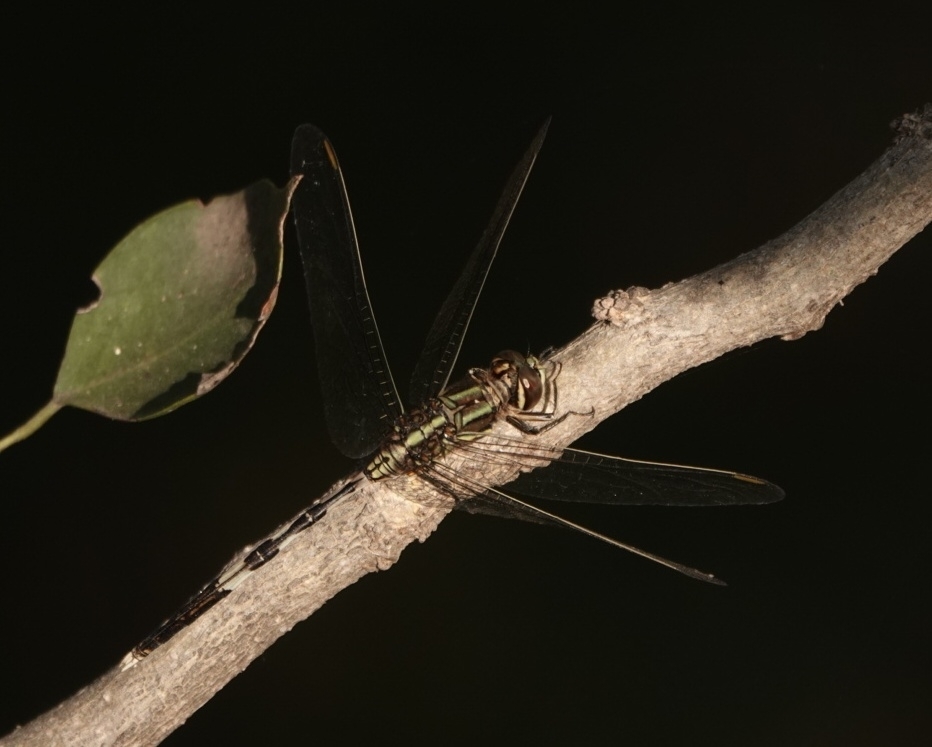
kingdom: Animalia
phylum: Arthropoda
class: Insecta
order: Odonata
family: Libellulidae
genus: Orthetrum
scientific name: Orthetrum sabina
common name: Slender skimmer
